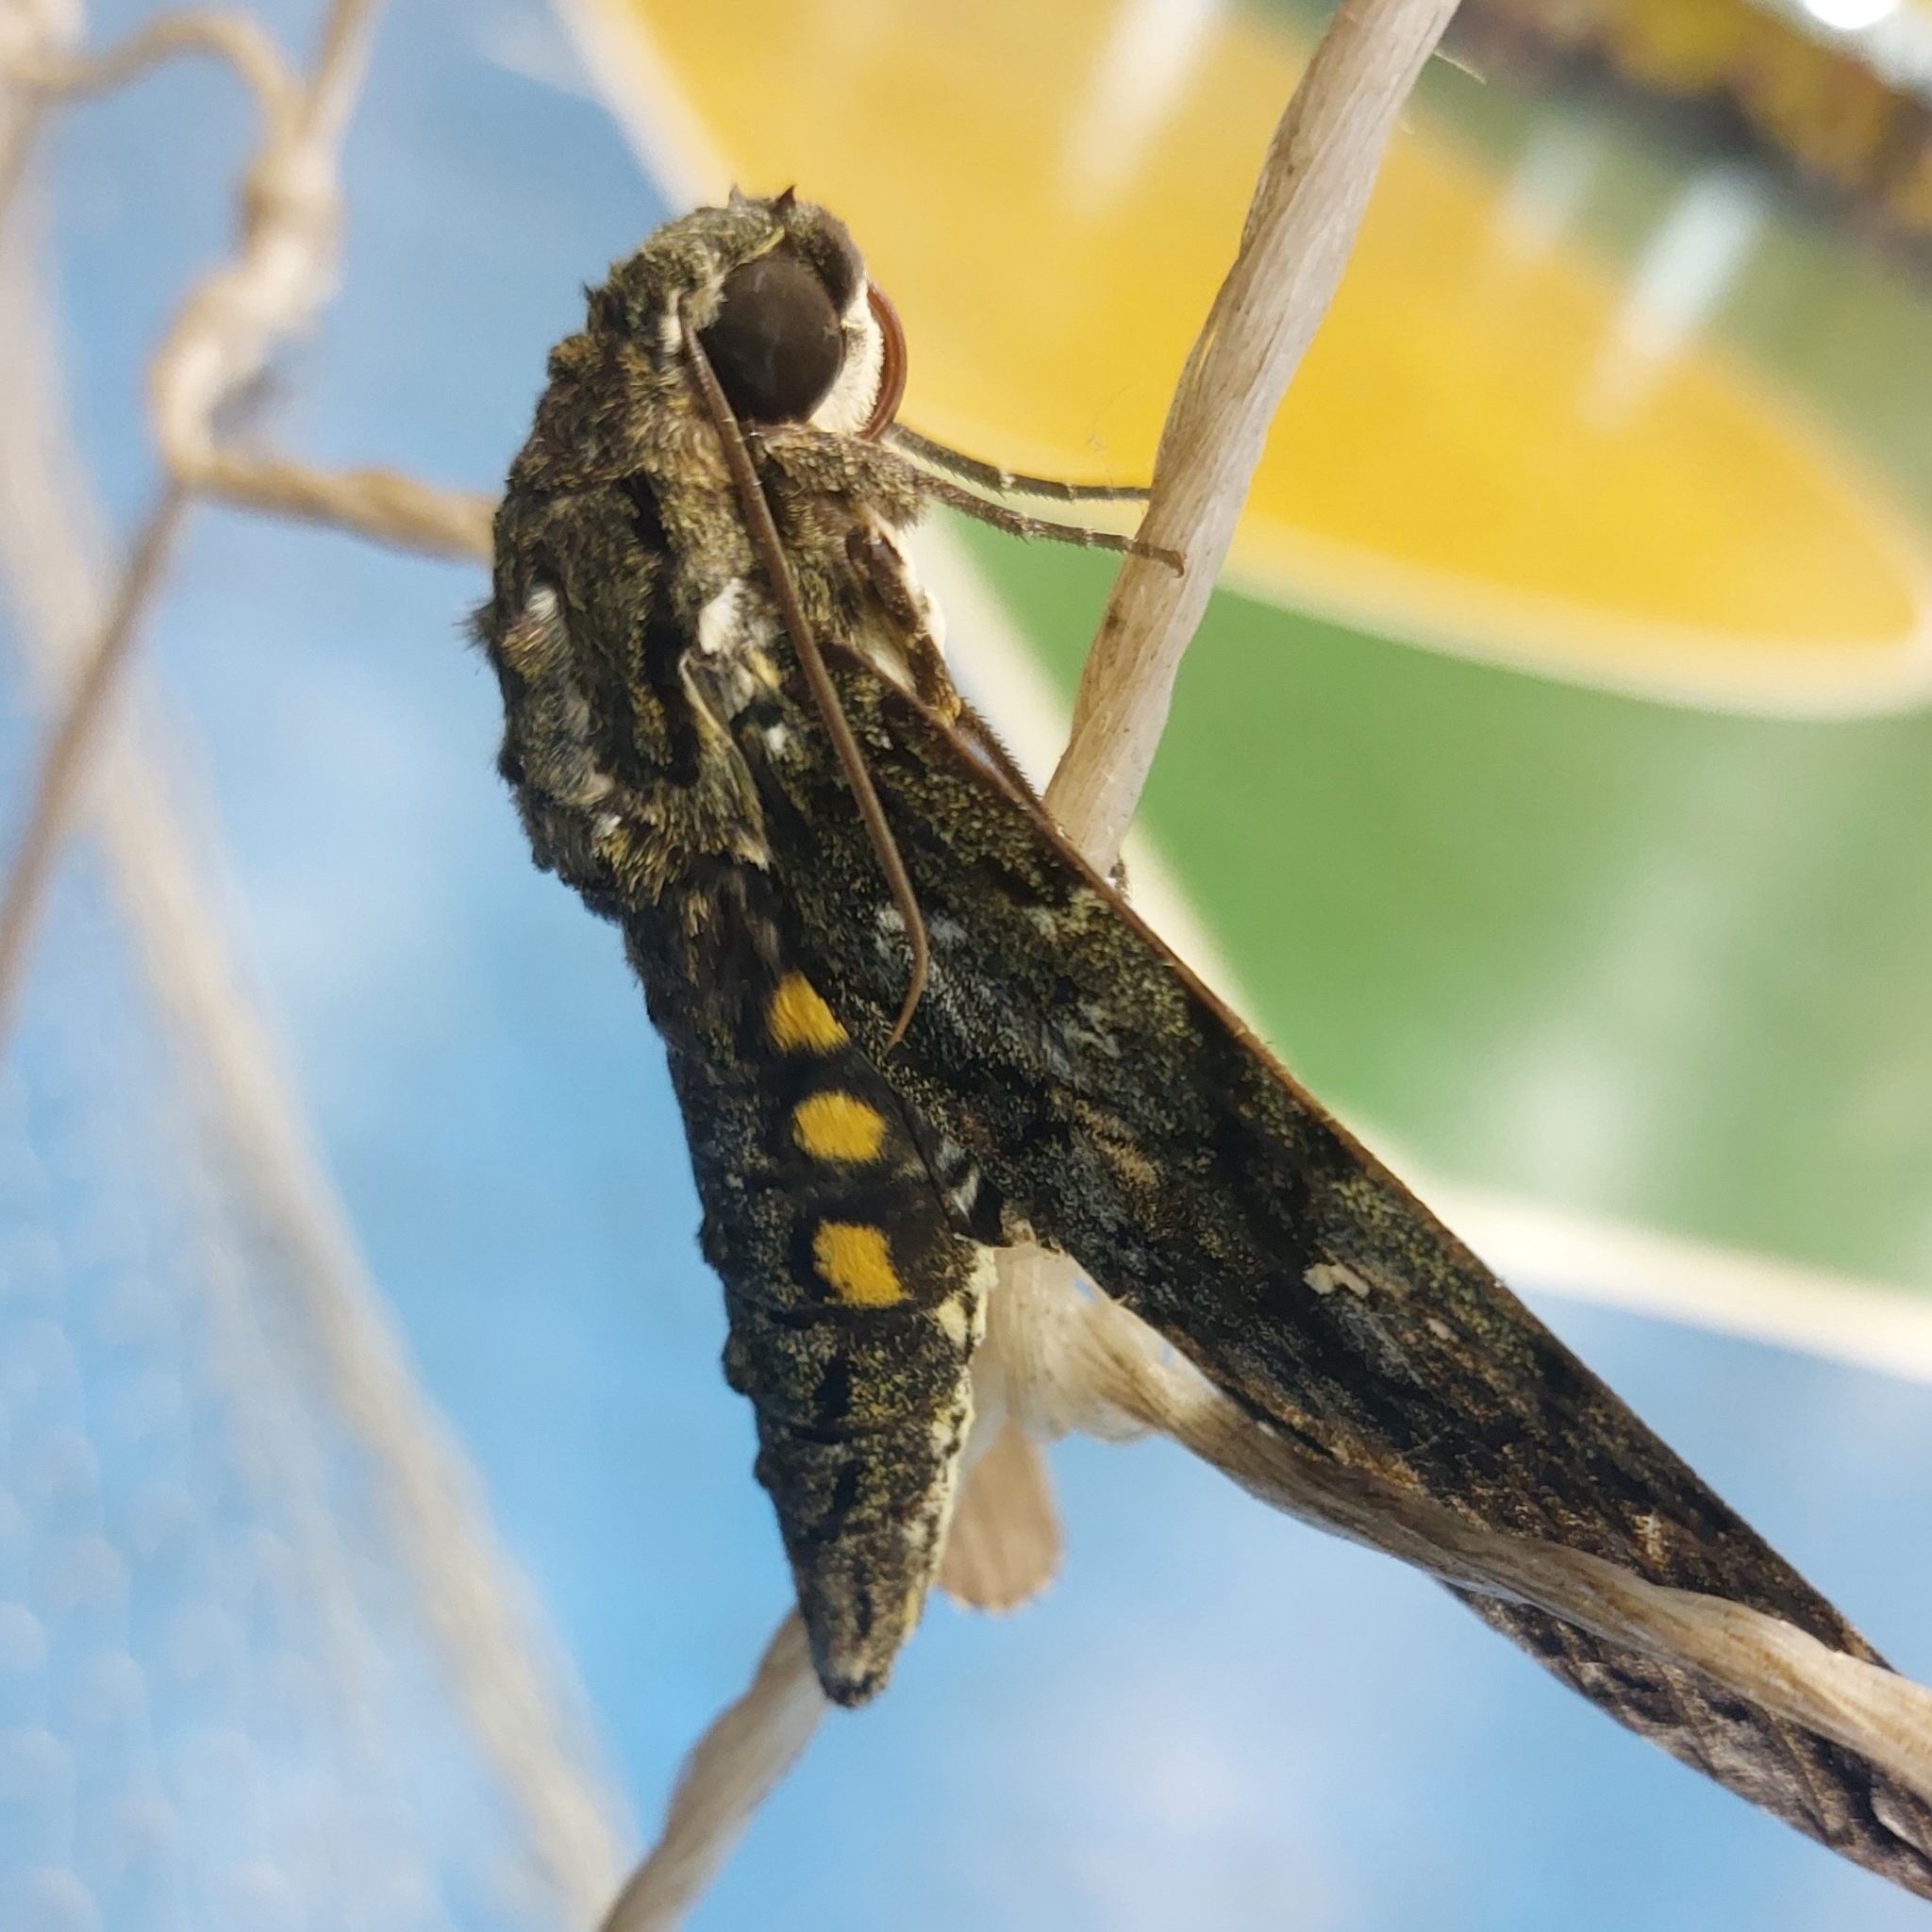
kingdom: Animalia
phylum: Arthropoda
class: Insecta
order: Lepidoptera
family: Sphingidae
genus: Cocytius
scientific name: Cocytius duponchel
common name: Duponchel's sphinx
